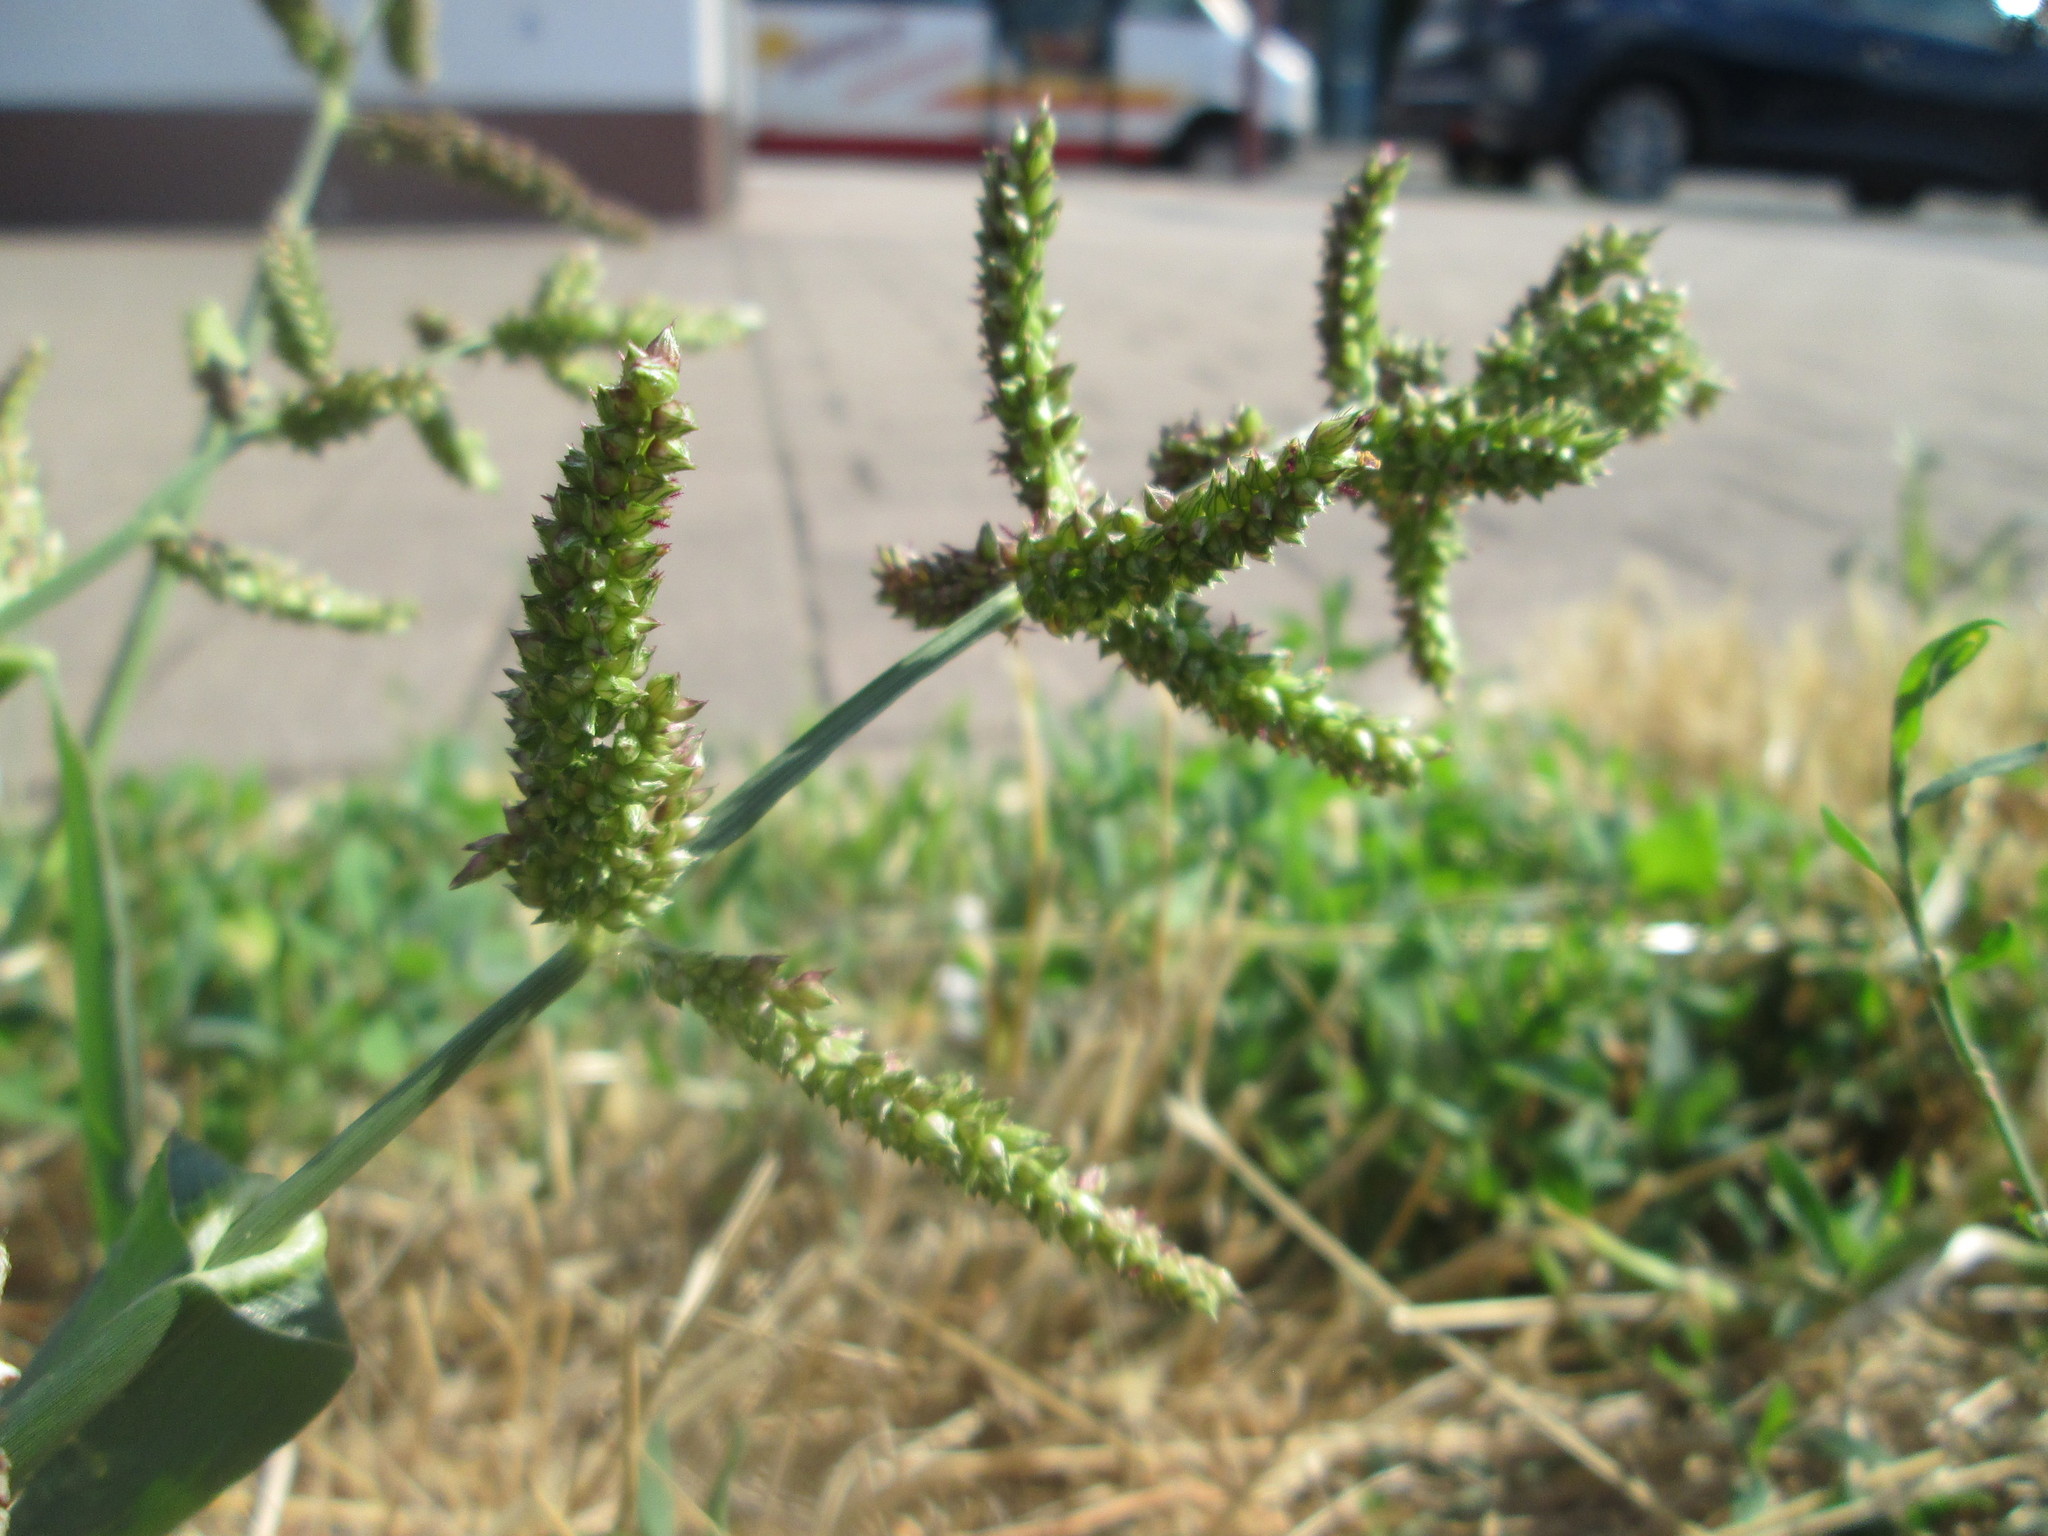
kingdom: Plantae
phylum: Tracheophyta
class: Liliopsida
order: Poales
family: Poaceae
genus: Echinochloa
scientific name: Echinochloa crus-galli
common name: Cockspur
